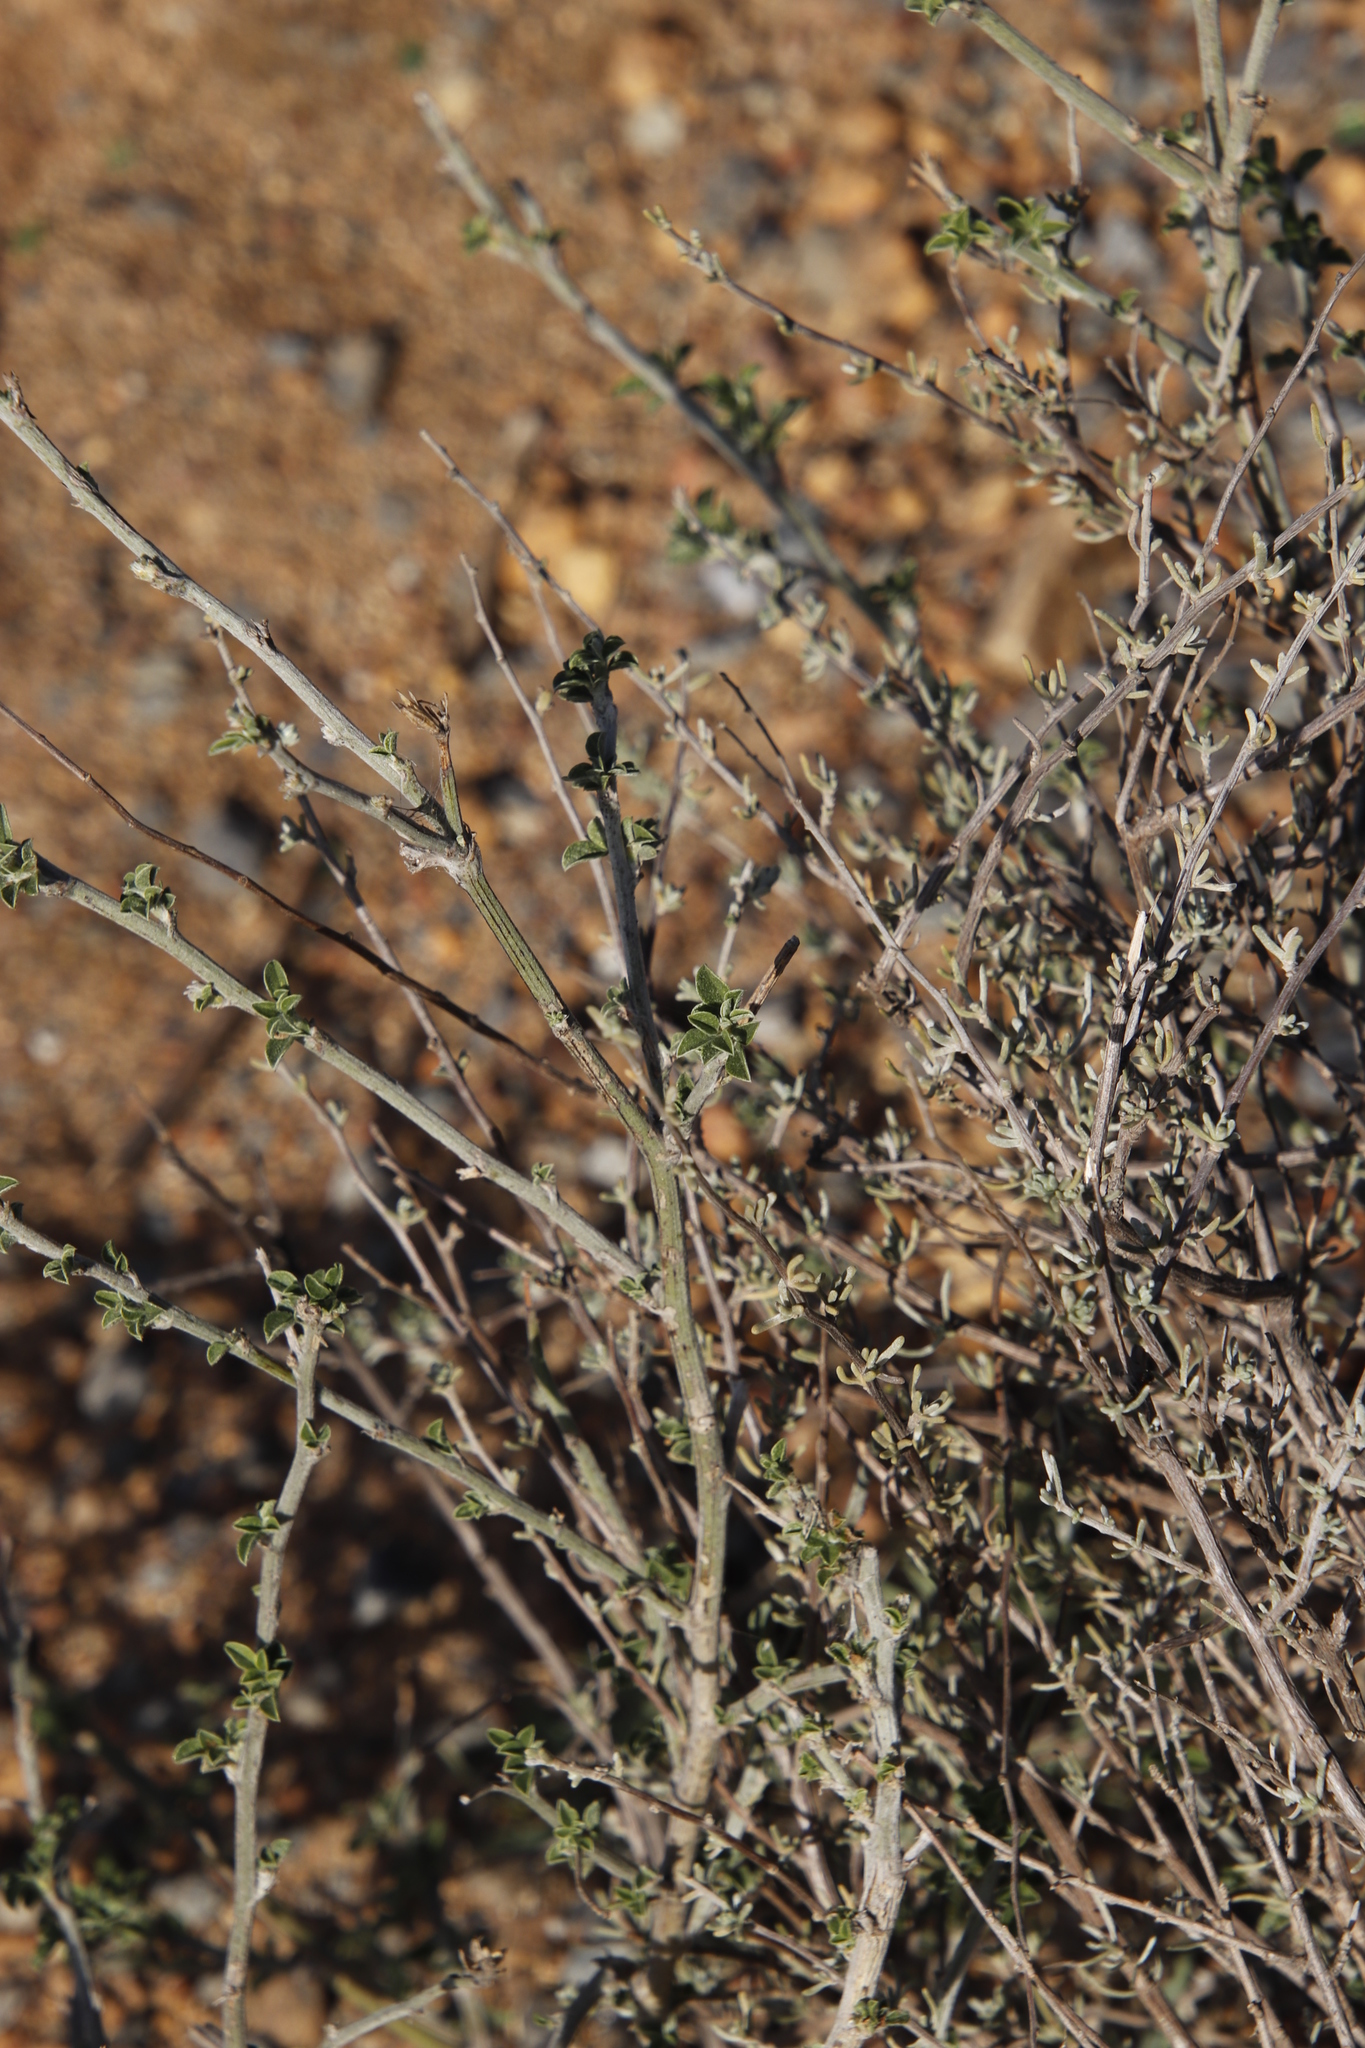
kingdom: Plantae
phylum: Tracheophyta
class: Magnoliopsida
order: Fabales
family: Fabaceae
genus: Psoralea
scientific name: Psoralea hirta
